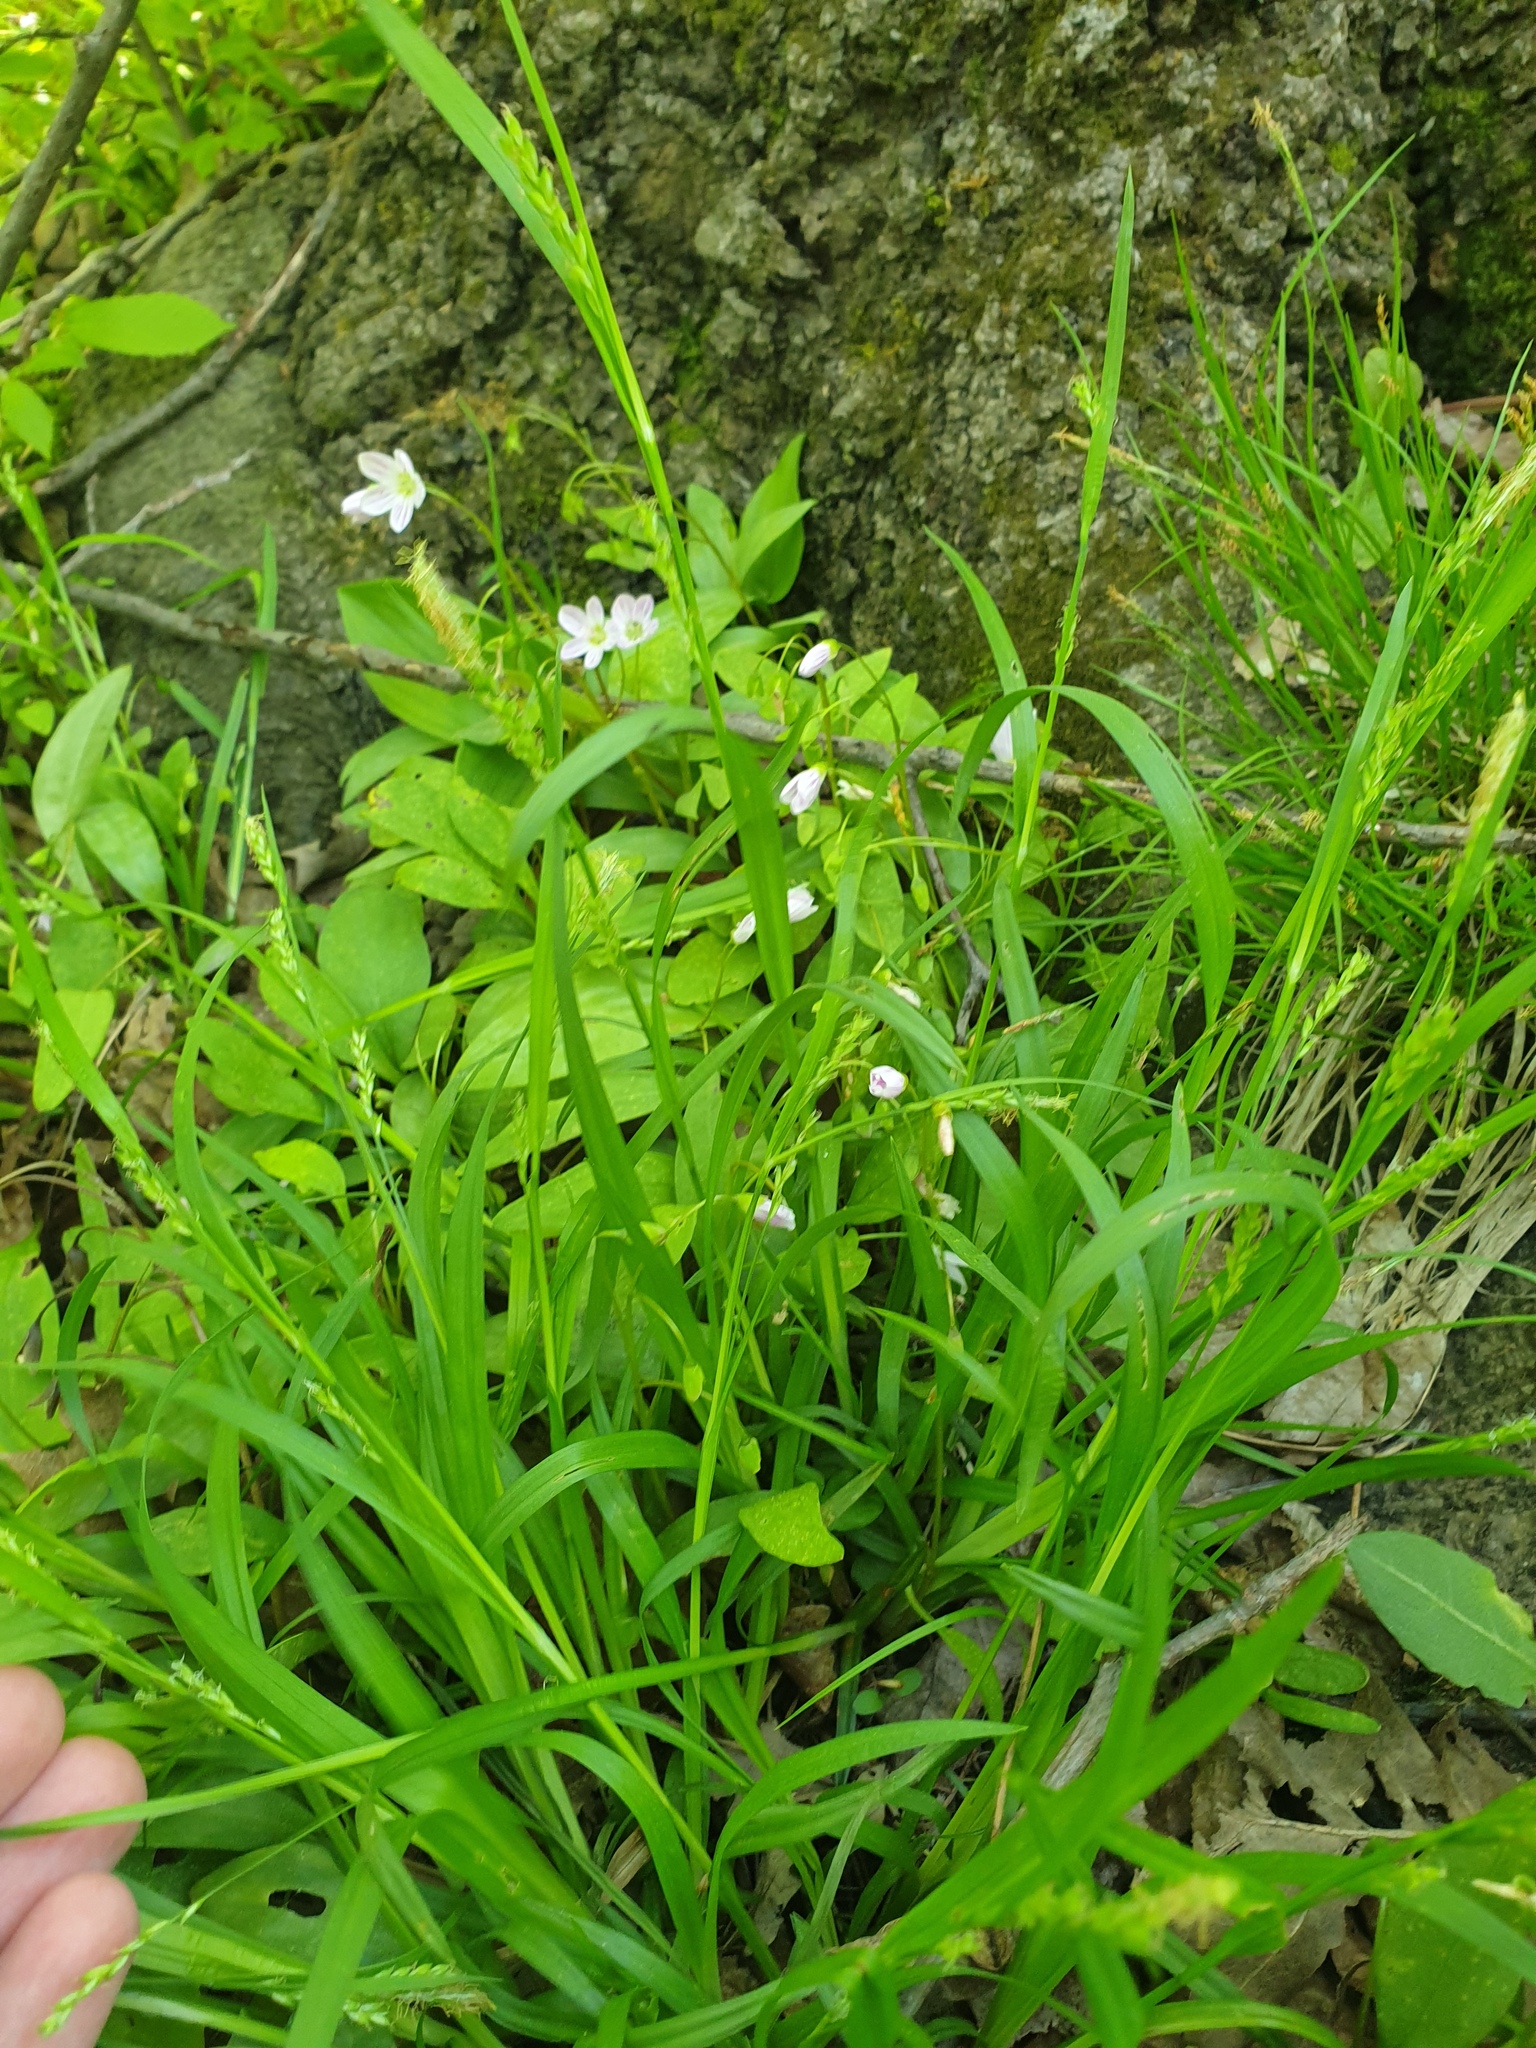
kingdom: Plantae
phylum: Tracheophyta
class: Magnoliopsida
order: Caryophyllales
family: Montiaceae
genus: Claytonia
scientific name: Claytonia caroliniana
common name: Carolina spring beauty
